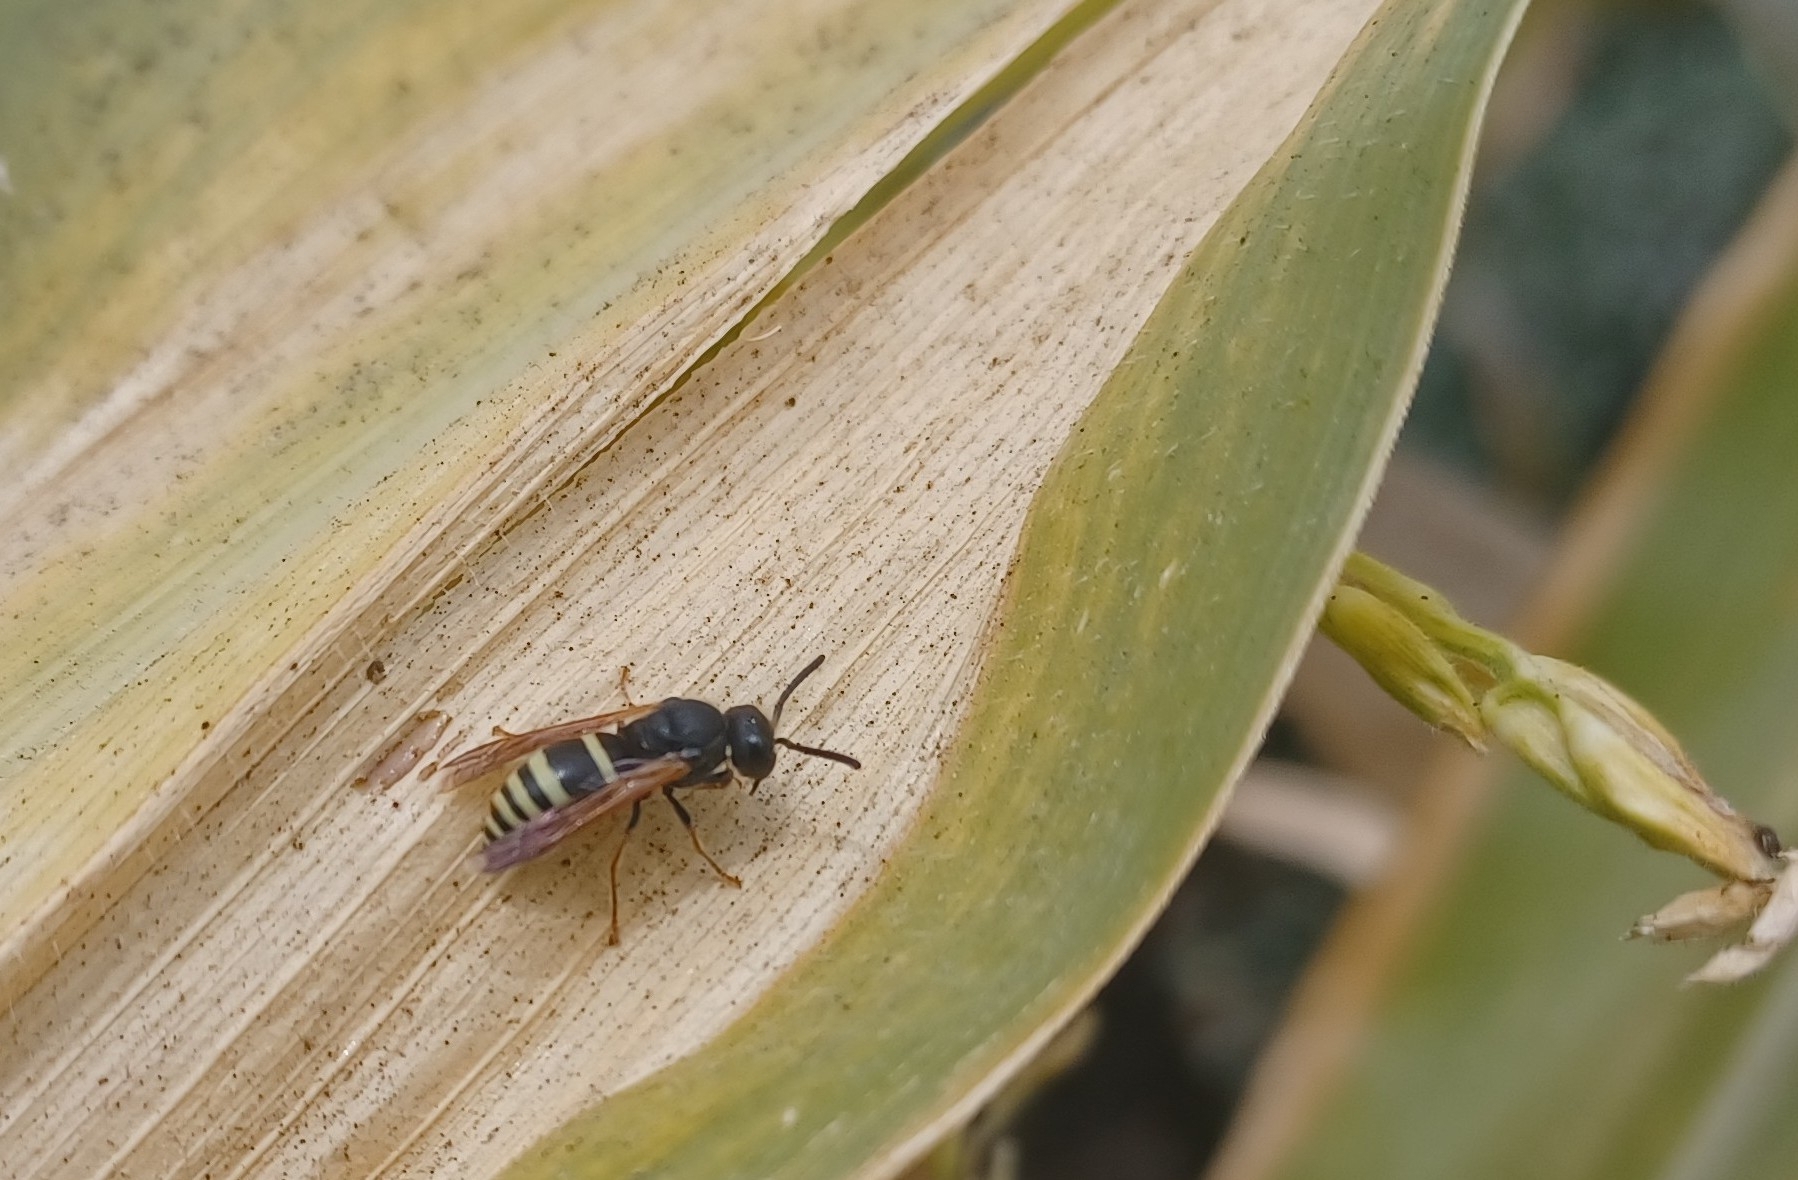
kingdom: Animalia
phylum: Arthropoda
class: Insecta
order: Hymenoptera
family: Eumenidae
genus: Pachodynerus
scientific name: Pachodynerus peruensis
